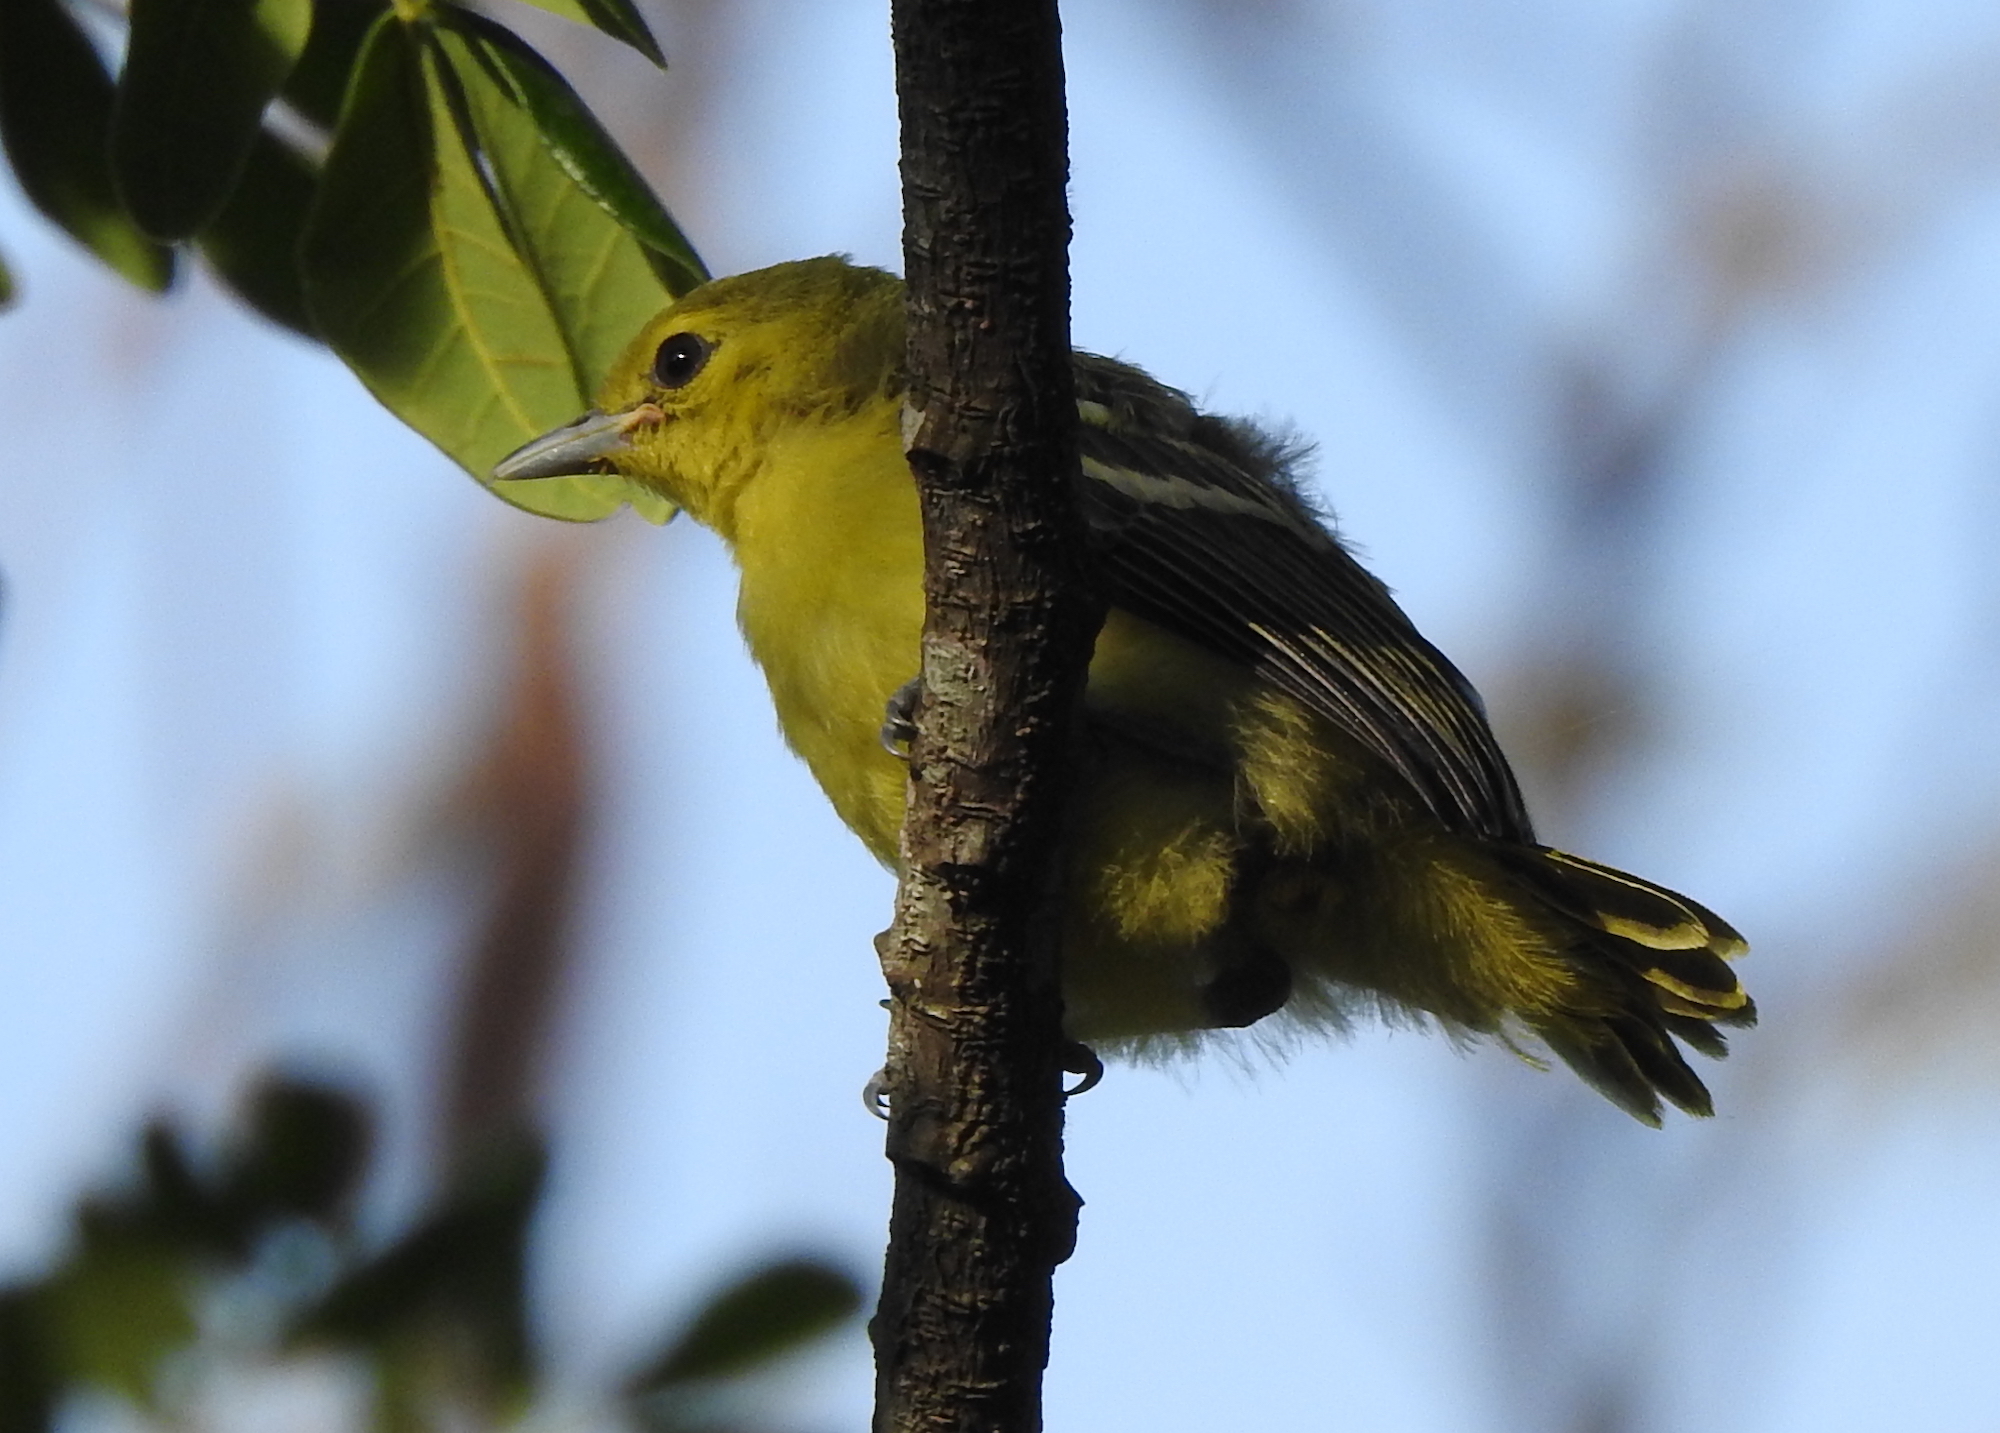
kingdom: Animalia
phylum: Chordata
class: Aves
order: Passeriformes
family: Aegithinidae
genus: Aegithina
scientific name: Aegithina tiphia
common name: Common iora
